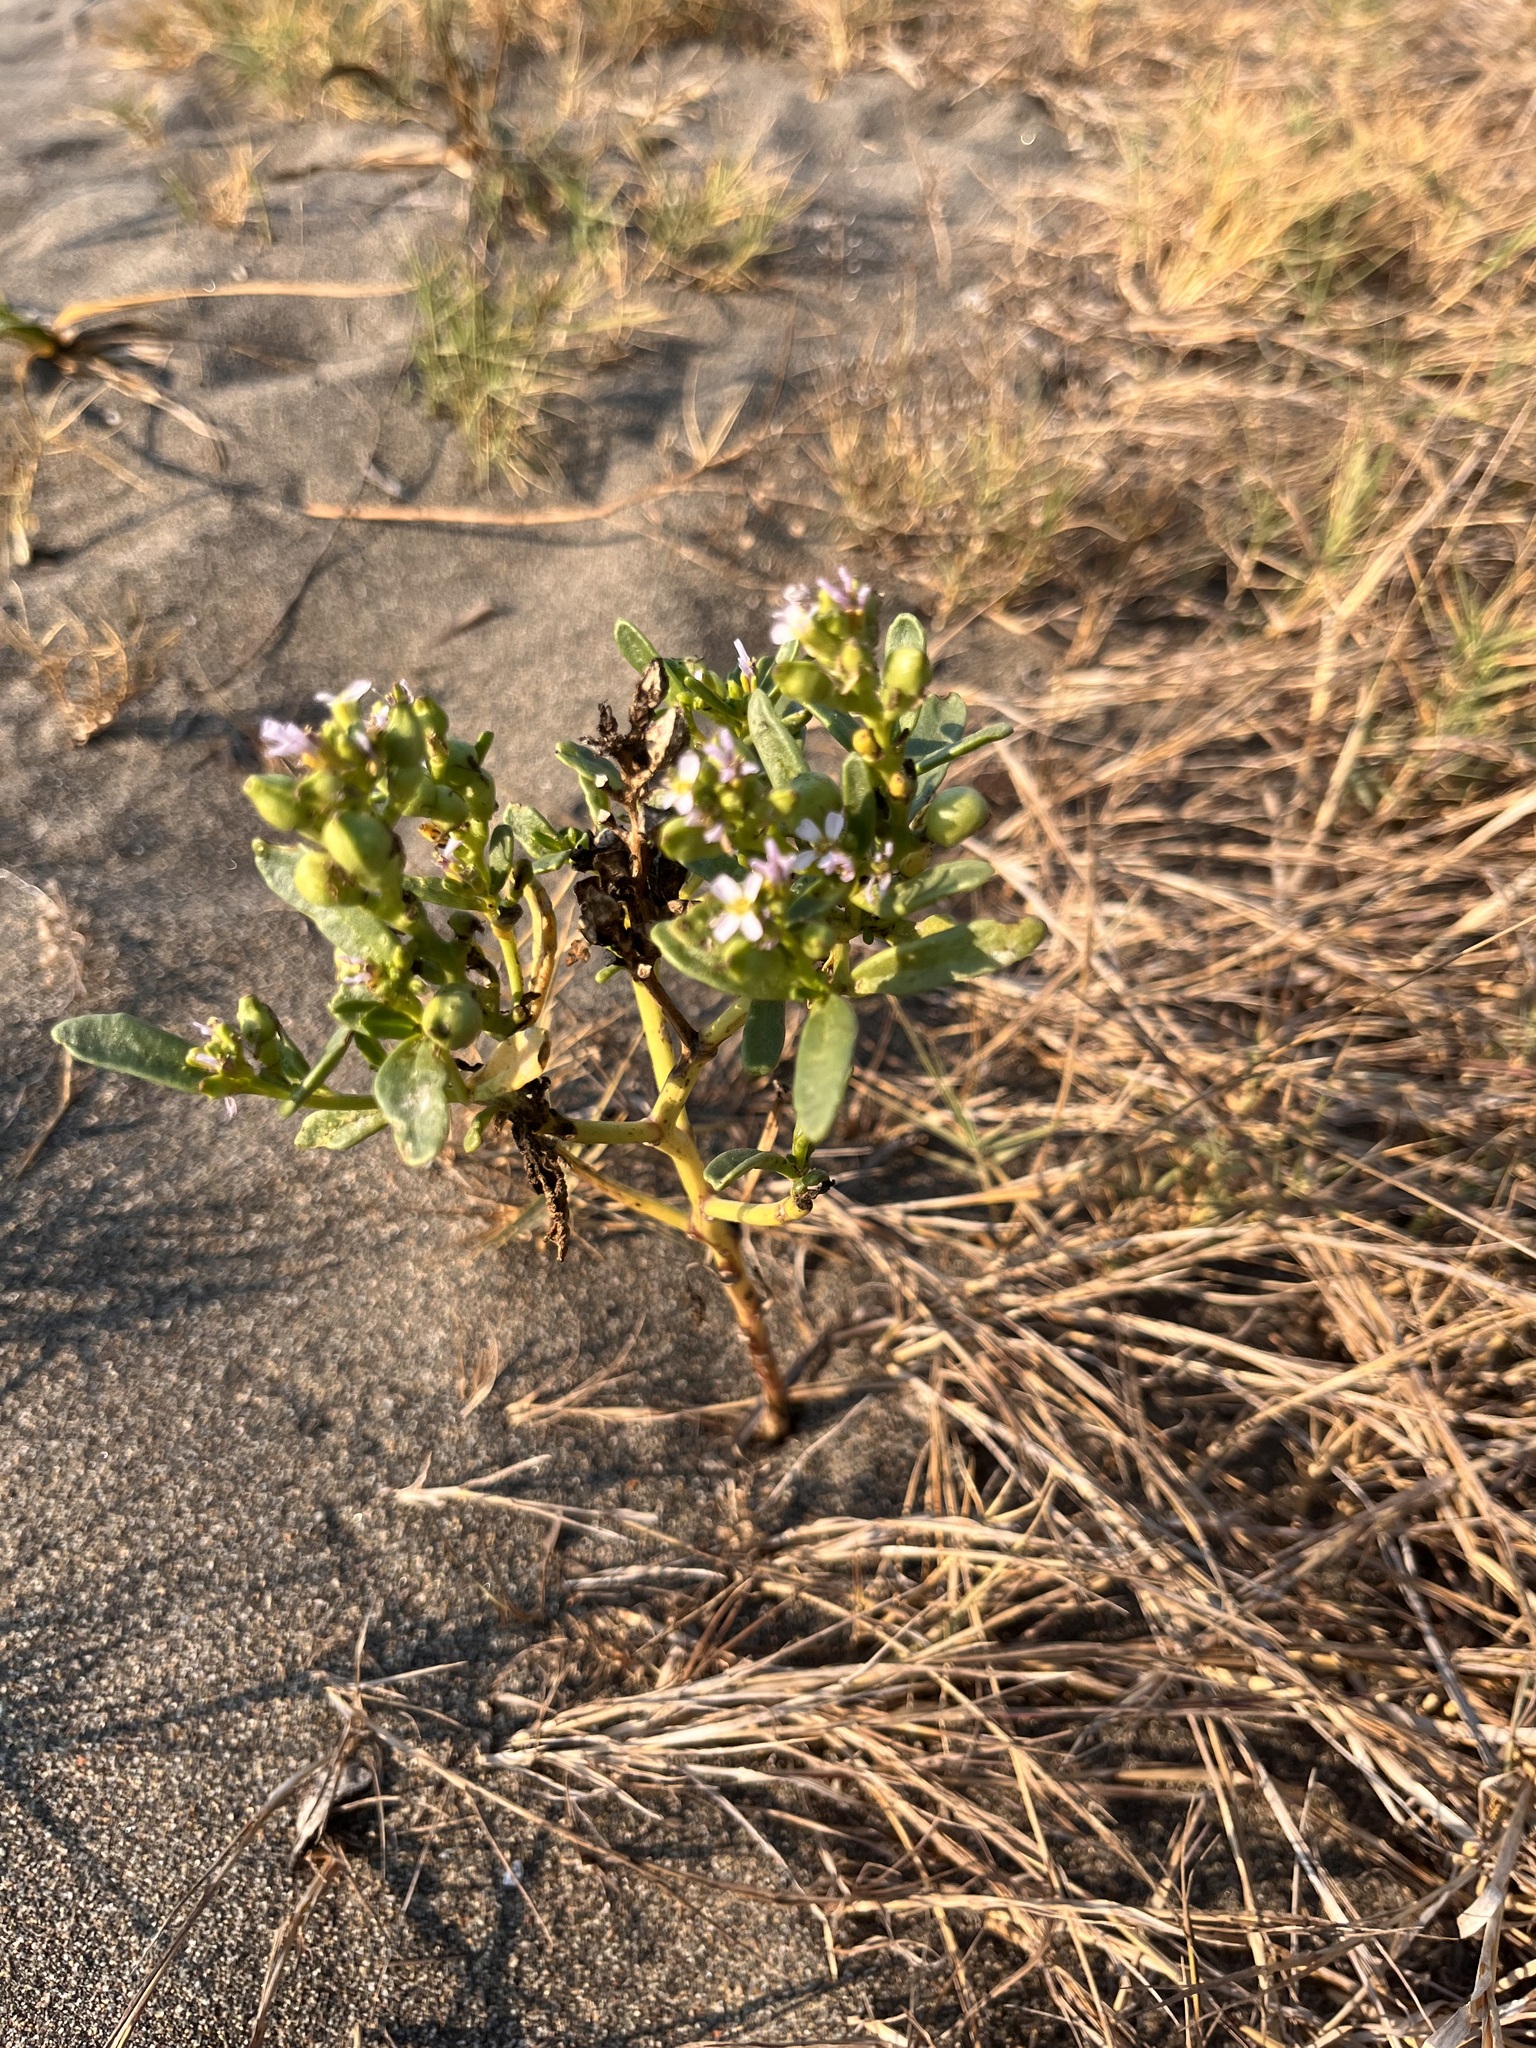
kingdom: Plantae
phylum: Tracheophyta
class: Magnoliopsida
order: Brassicales
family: Brassicaceae
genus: Cakile
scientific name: Cakile edentula
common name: American sea rocket
